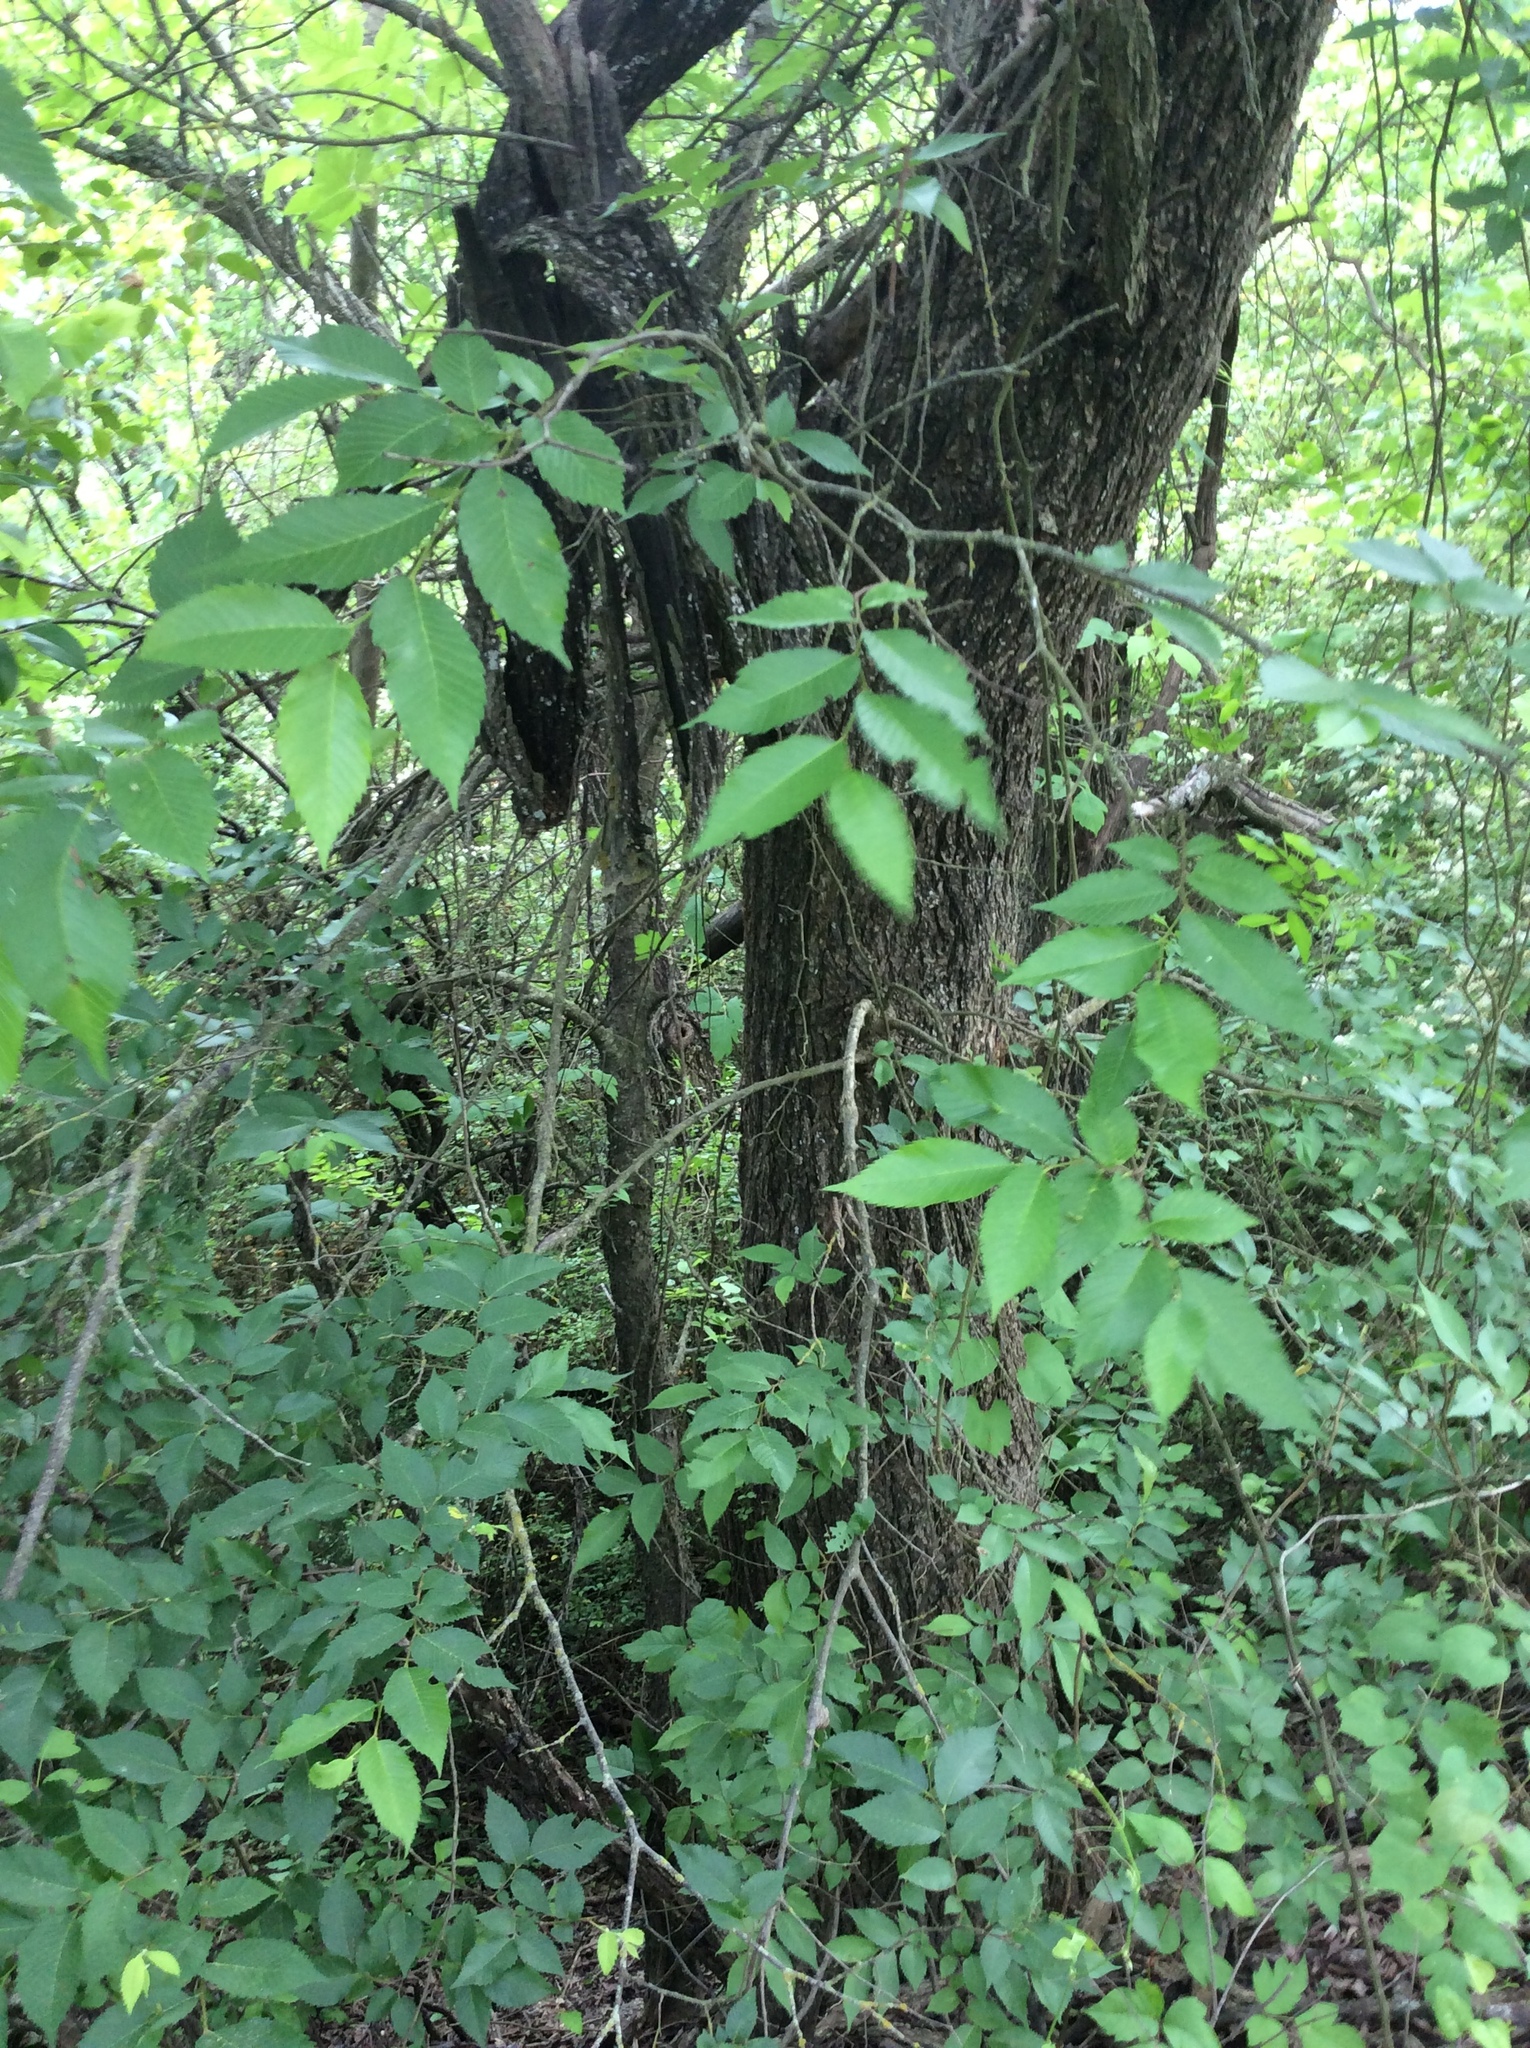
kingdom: Plantae
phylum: Tracheophyta
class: Magnoliopsida
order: Rosales
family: Ulmaceae
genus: Ulmus
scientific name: Ulmus americana
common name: American elm
